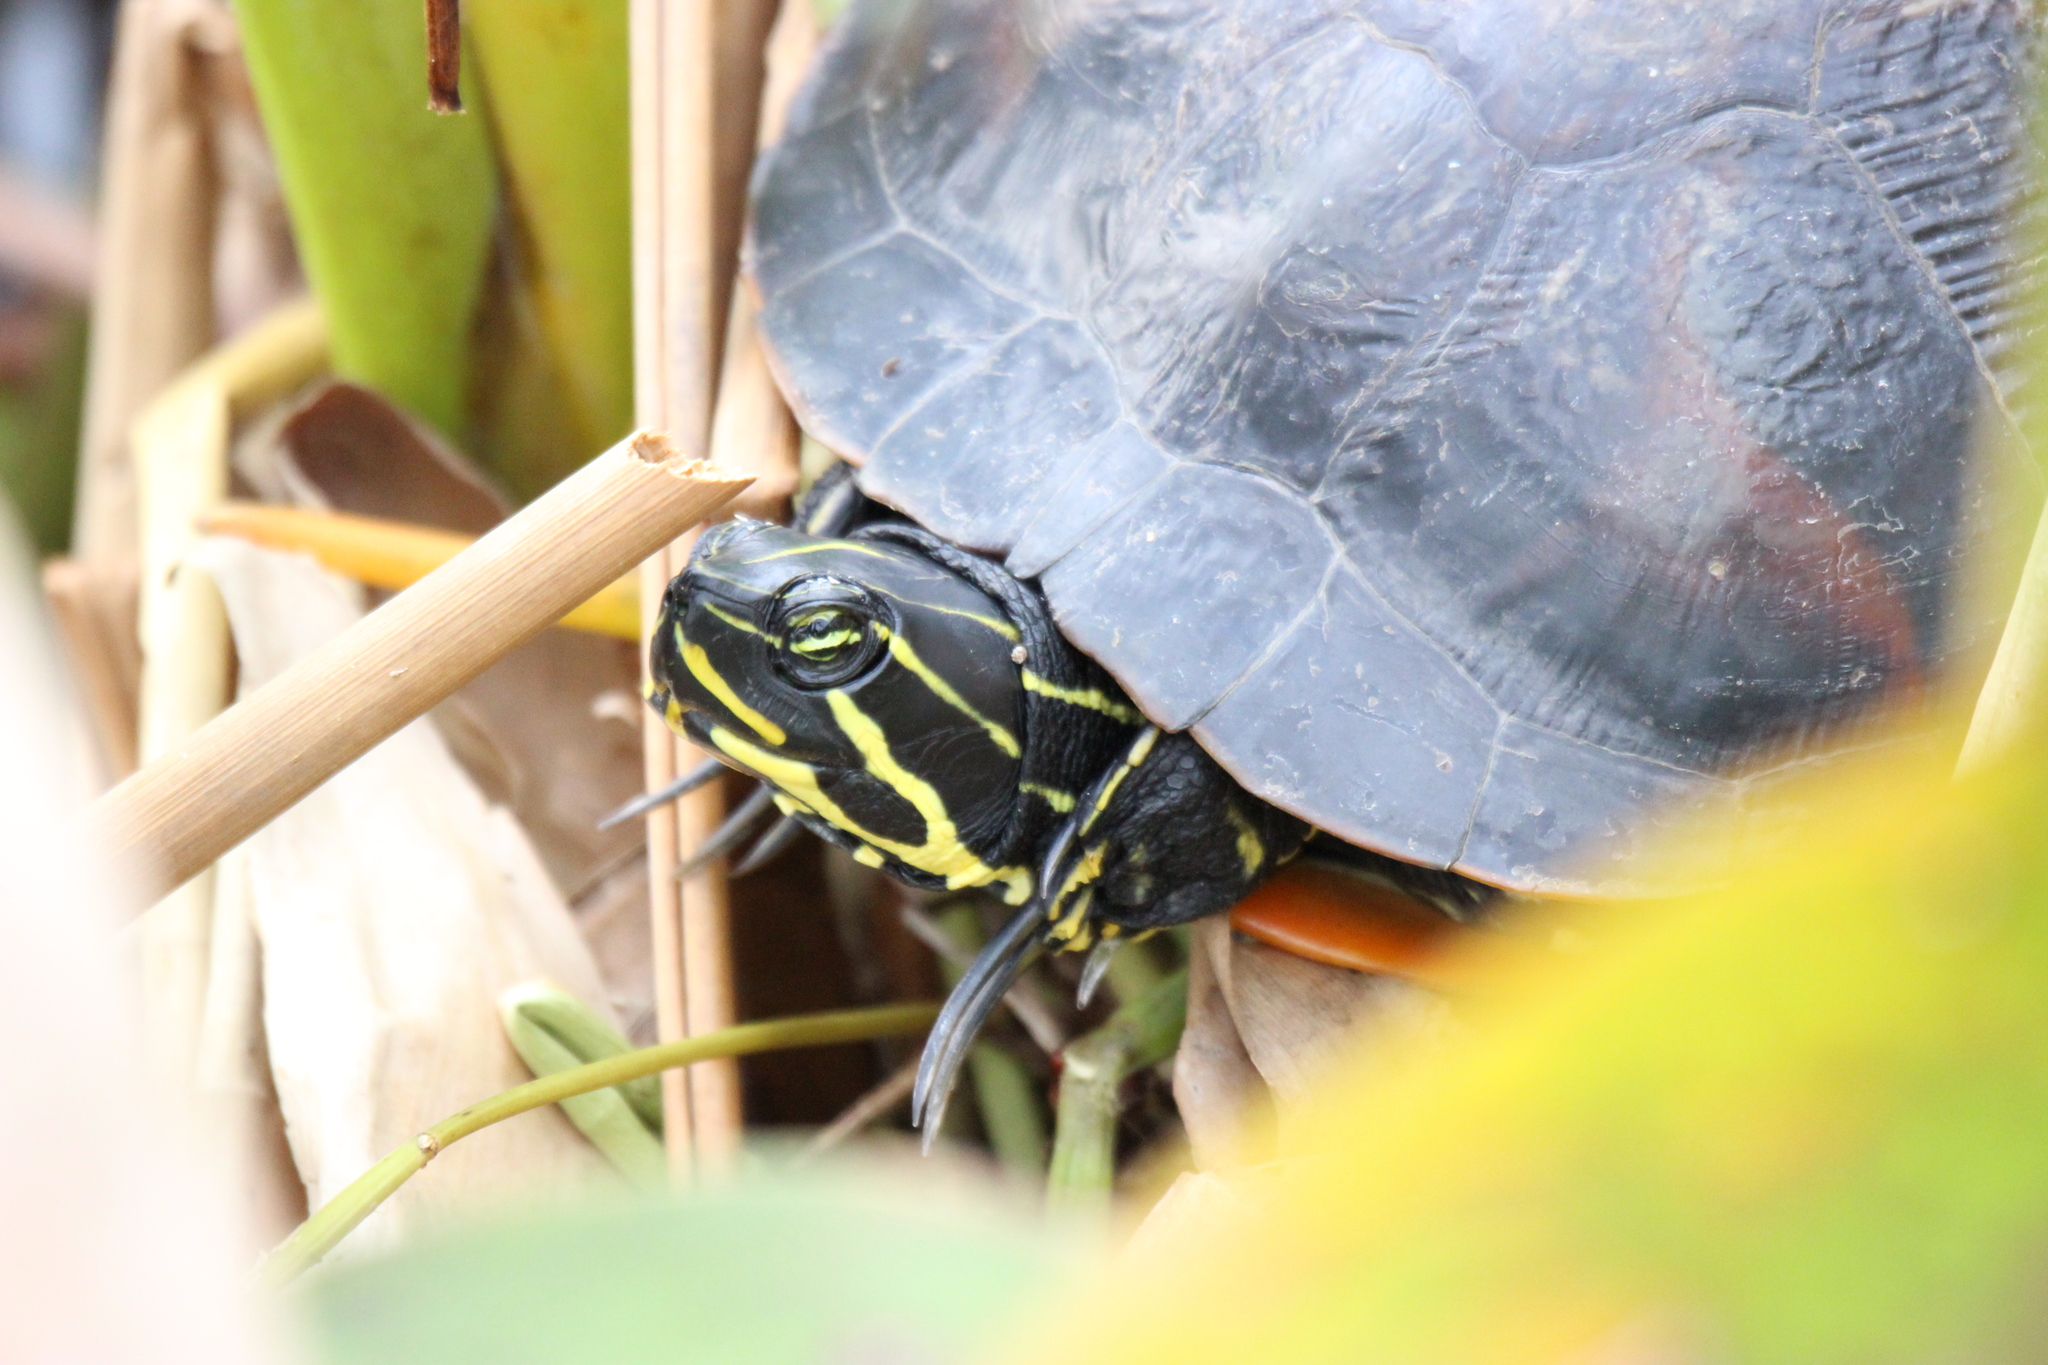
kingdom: Animalia
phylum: Chordata
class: Testudines
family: Emydidae
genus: Pseudemys
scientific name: Pseudemys nelsoni
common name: Florida red-bellied turtle
